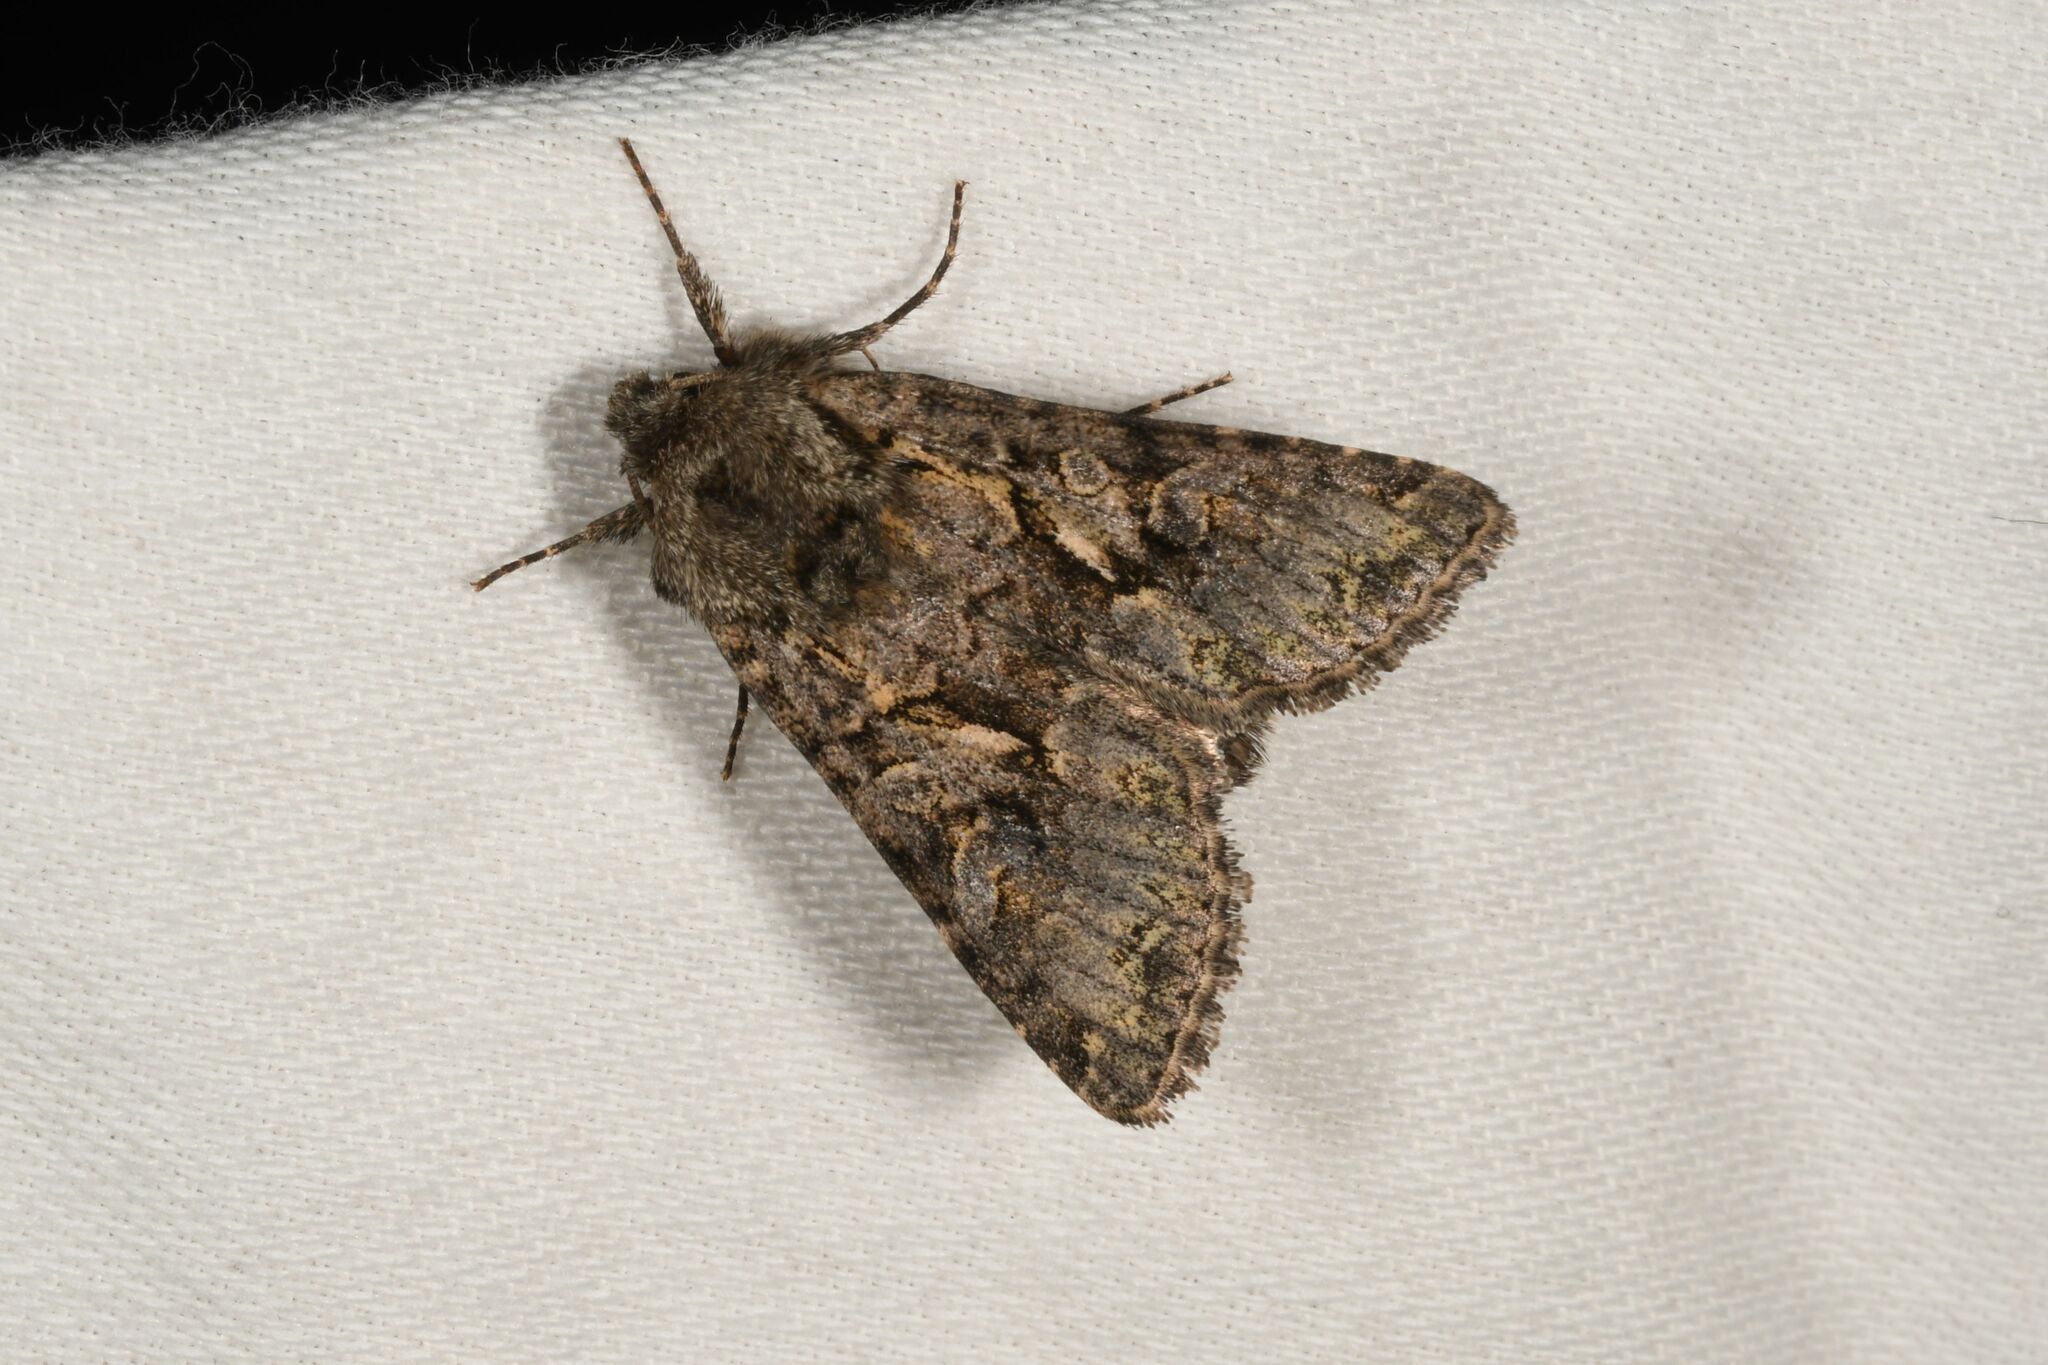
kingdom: Animalia
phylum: Arthropoda
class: Insecta
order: Lepidoptera
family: Noctuidae
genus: Hada
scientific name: Hada plebeja
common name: Shears
